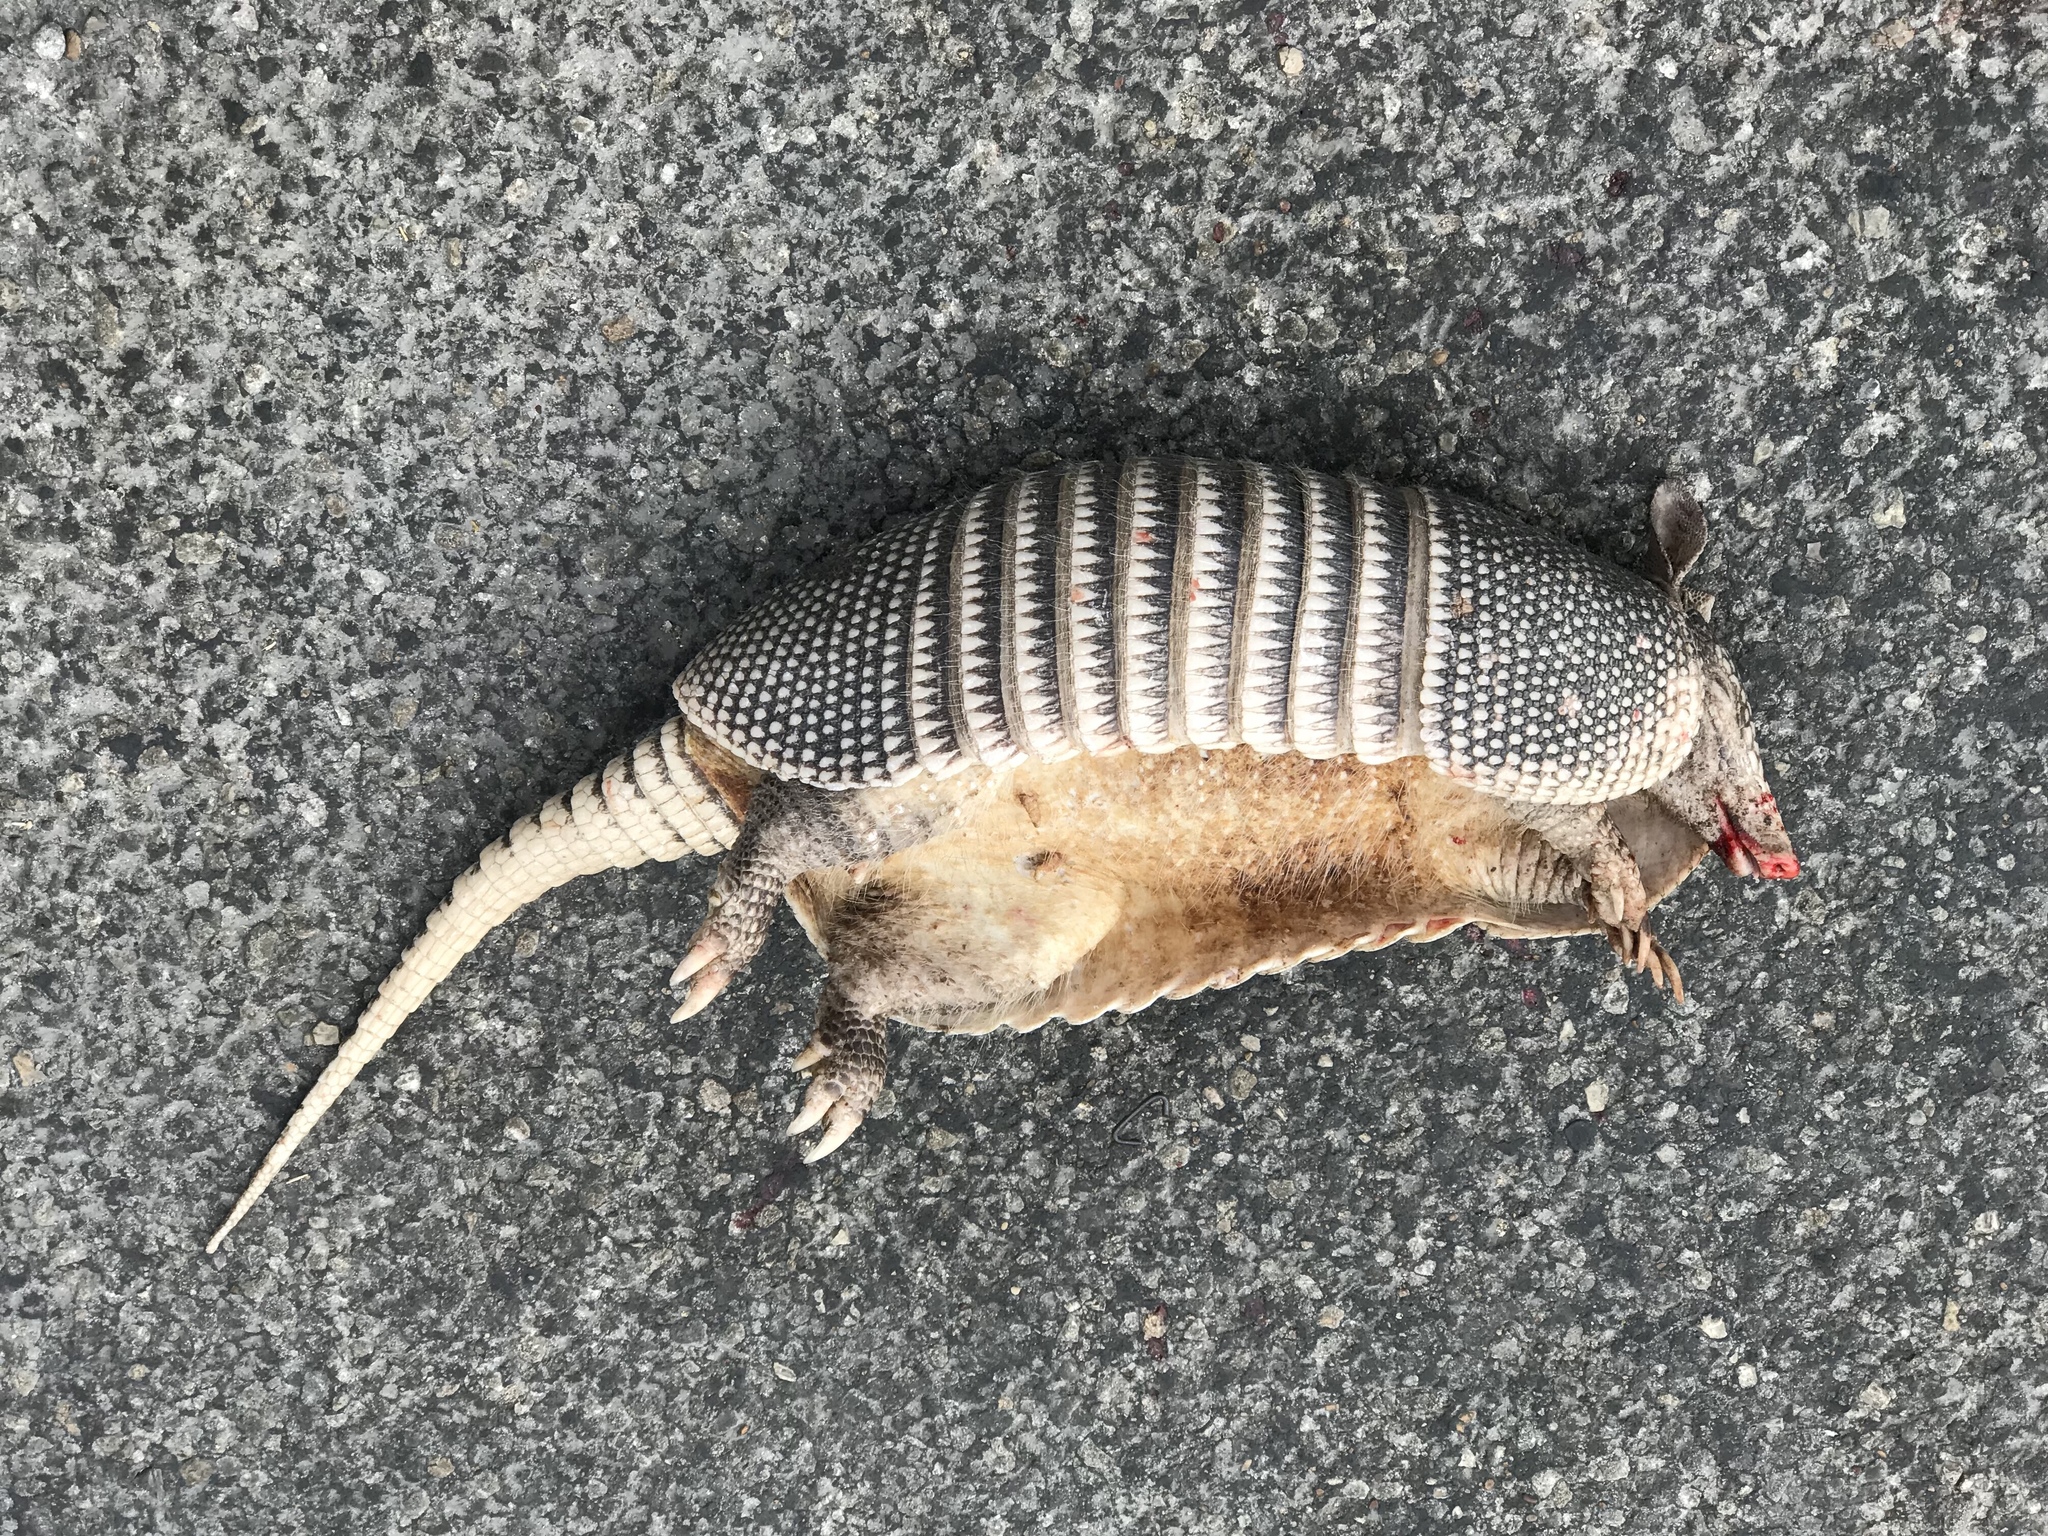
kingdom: Animalia
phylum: Chordata
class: Mammalia
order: Cingulata
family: Dasypodidae
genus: Dasypus
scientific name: Dasypus novemcinctus
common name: Nine-banded armadillo
